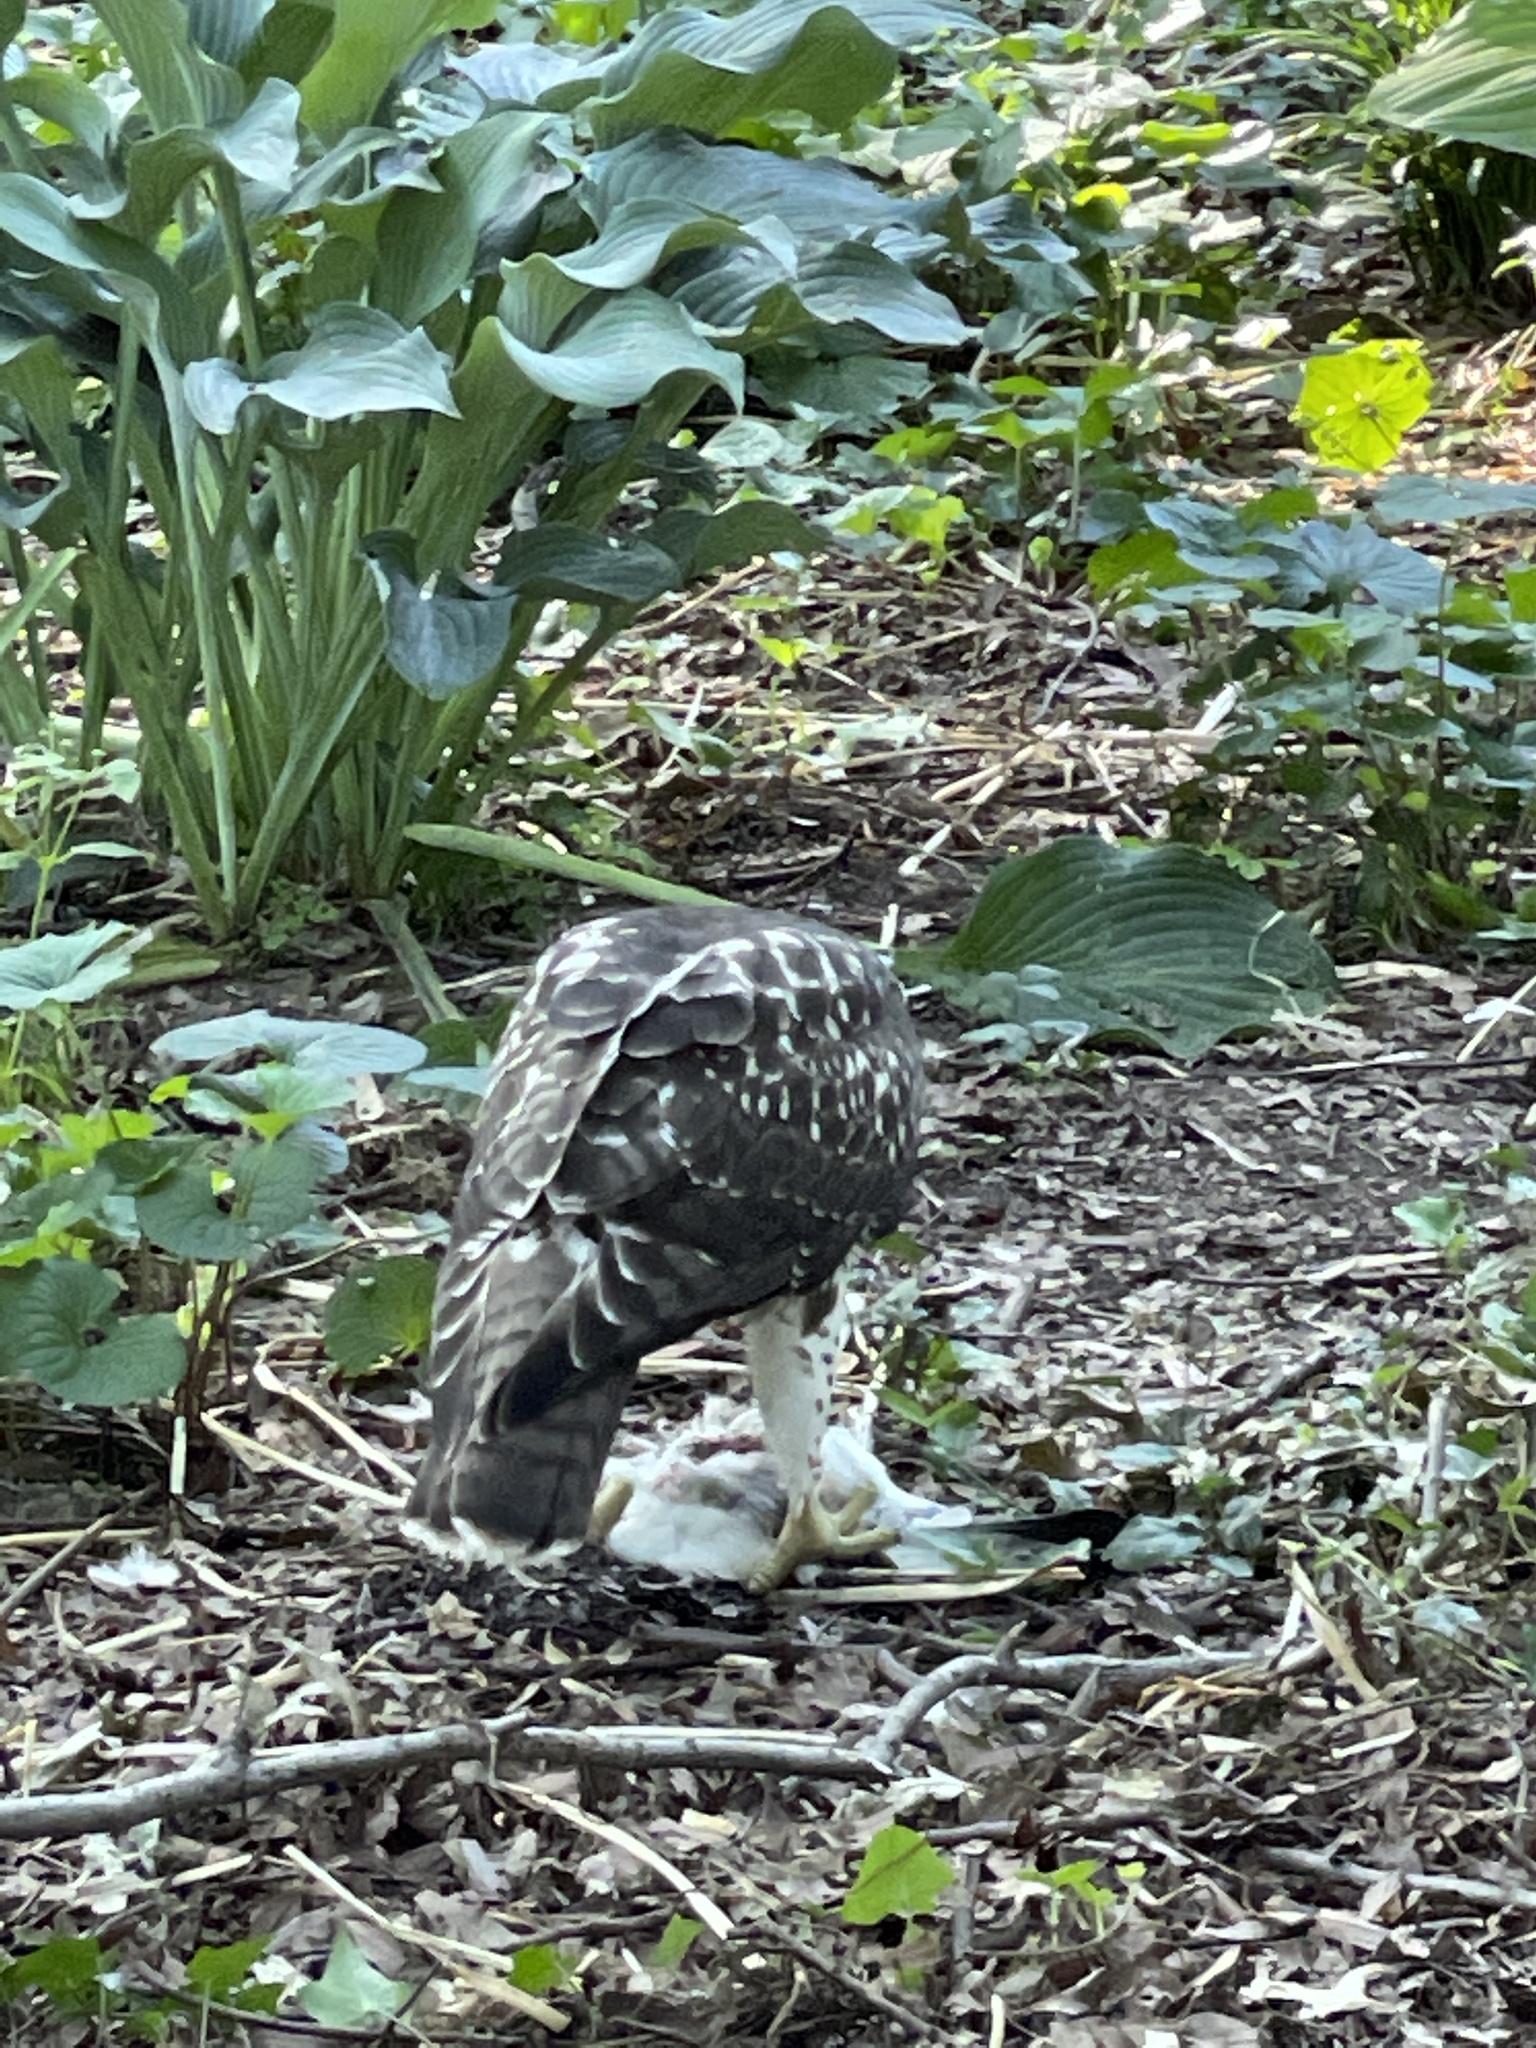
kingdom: Animalia
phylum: Chordata
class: Aves
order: Accipitriformes
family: Accipitridae
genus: Buteo
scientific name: Buteo jamaicensis
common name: Red-tailed hawk
